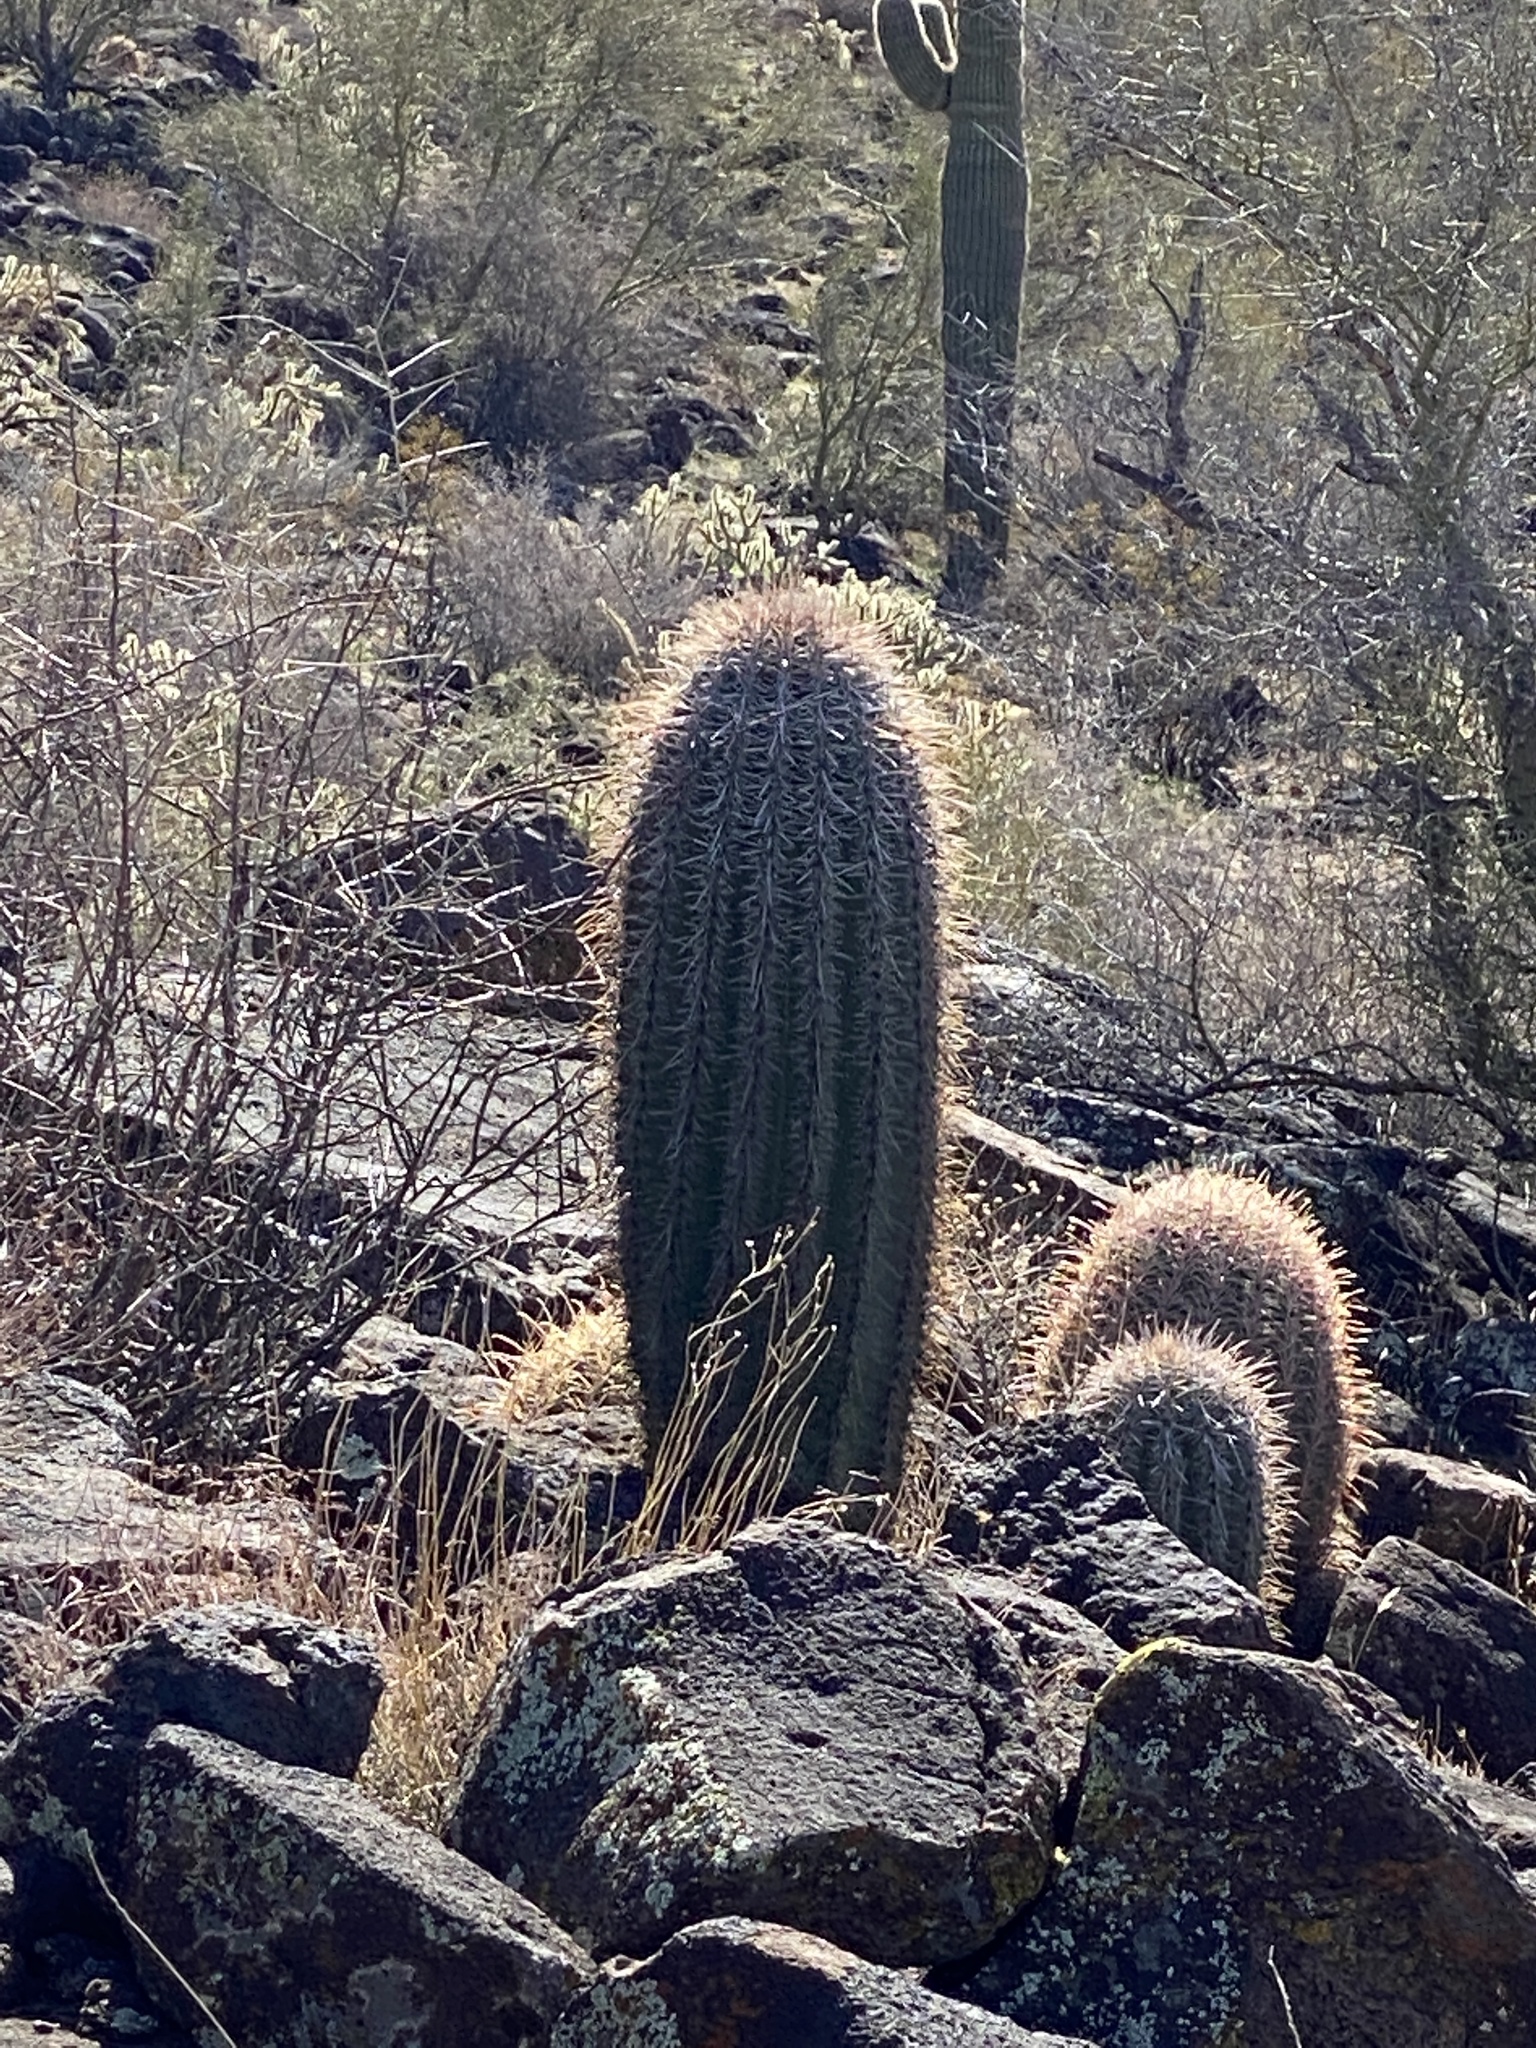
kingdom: Plantae
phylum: Tracheophyta
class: Magnoliopsida
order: Caryophyllales
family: Cactaceae
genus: Carnegiea
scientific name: Carnegiea gigantea
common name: Saguaro
